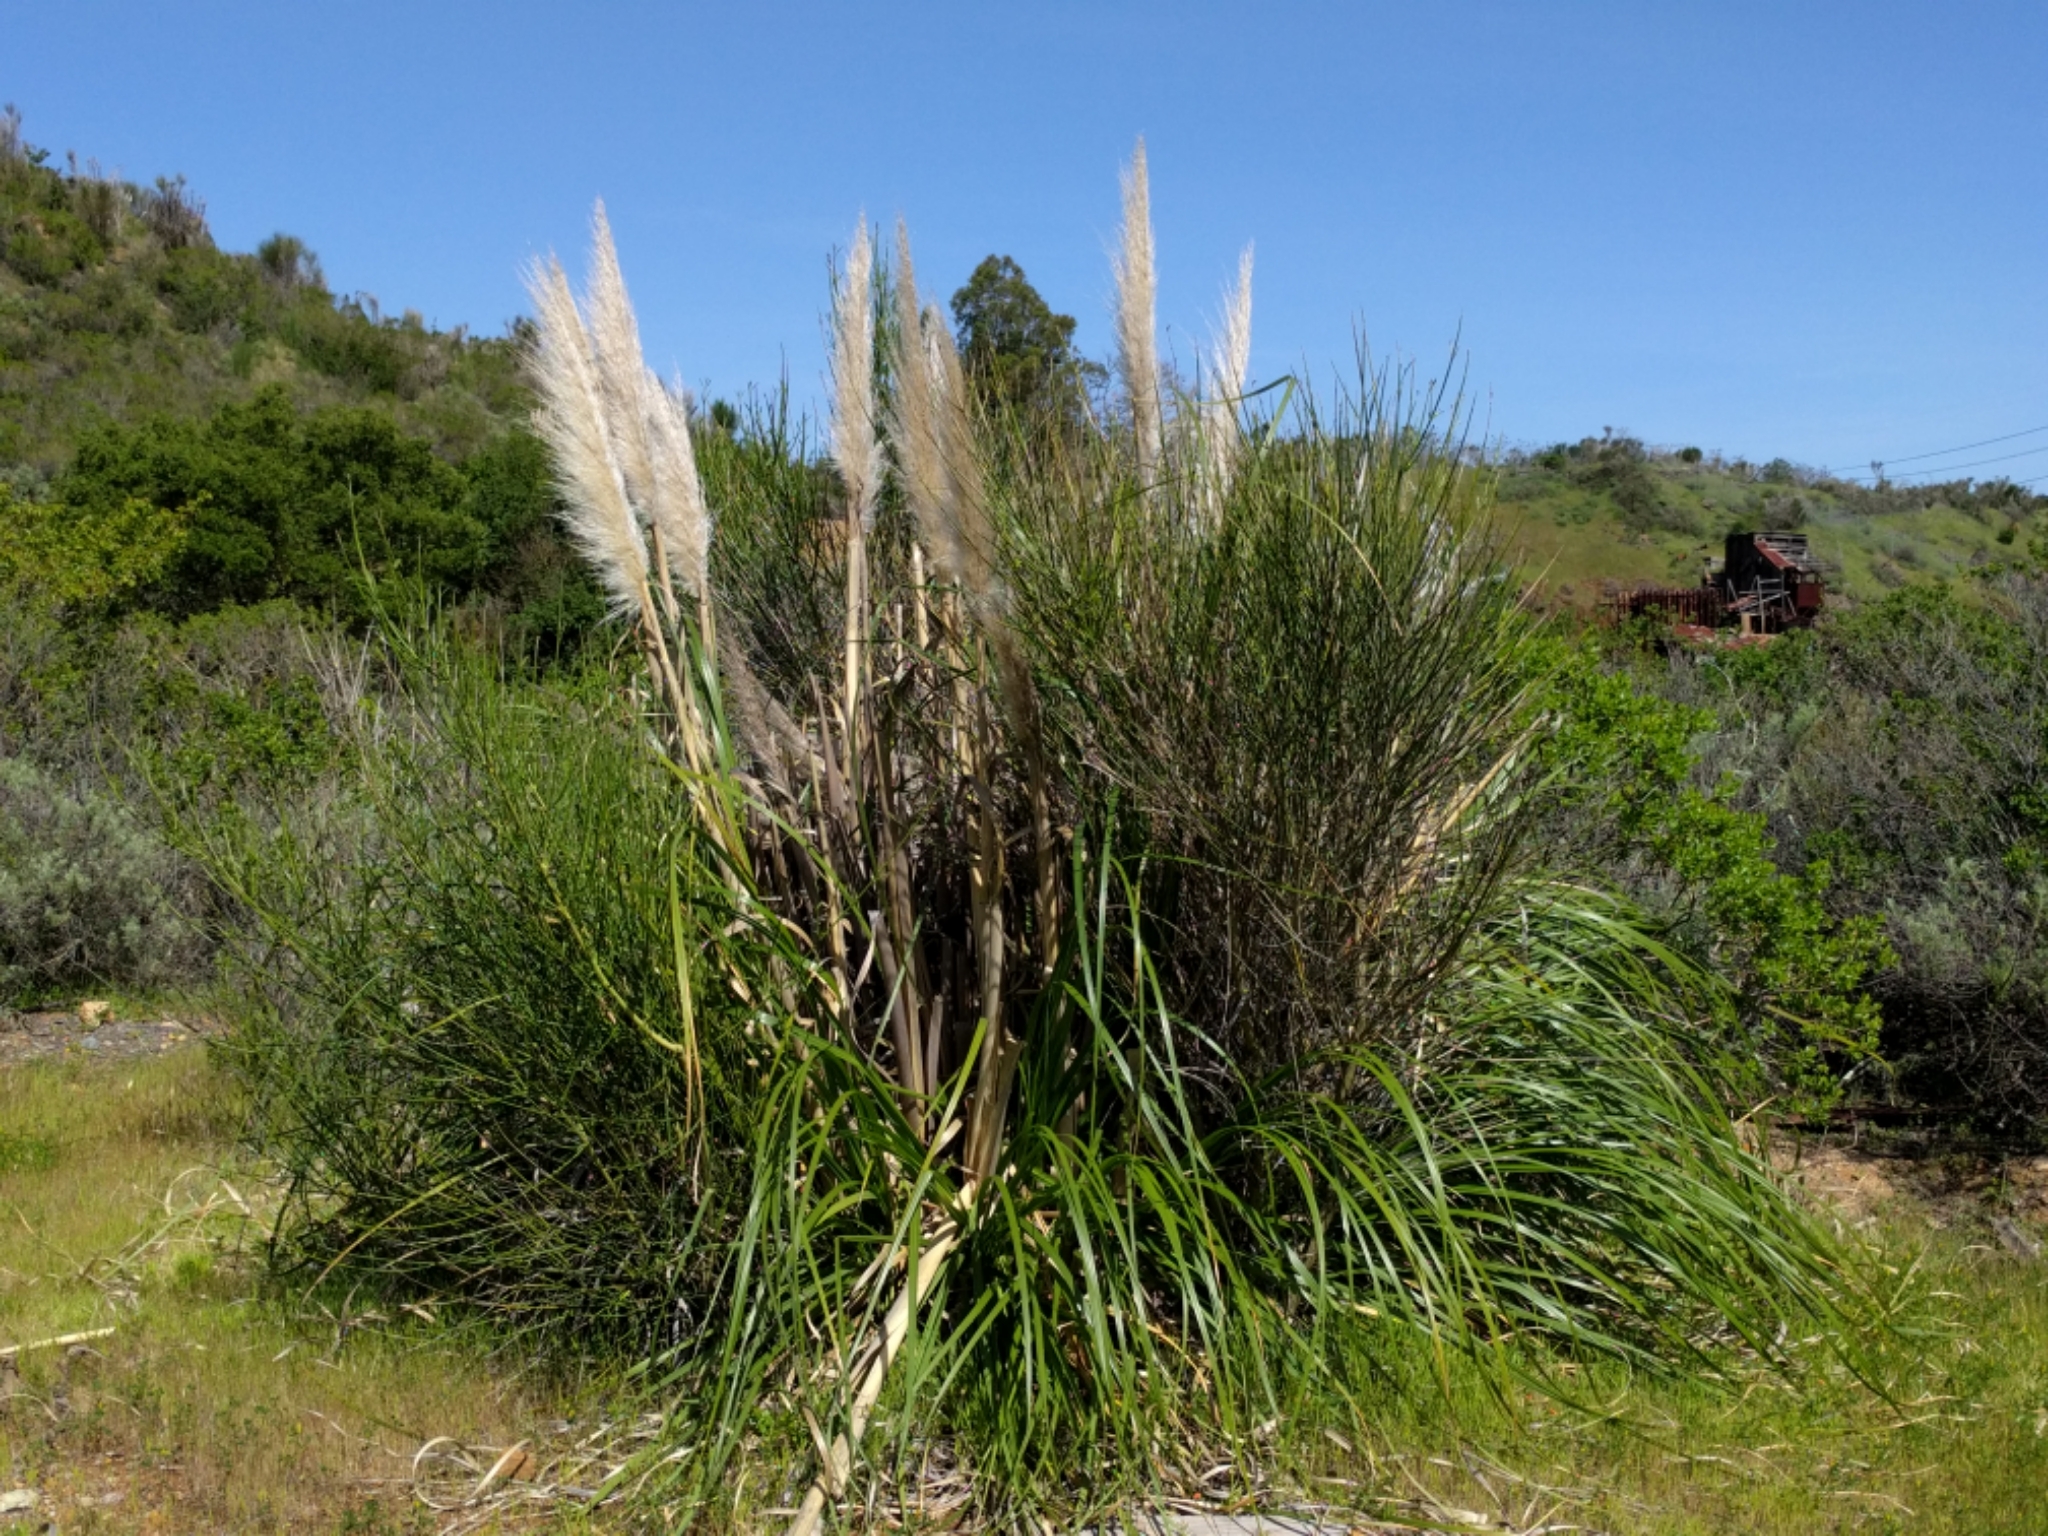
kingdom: Plantae
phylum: Tracheophyta
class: Liliopsida
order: Poales
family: Poaceae
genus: Cortaderia
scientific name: Cortaderia jubata
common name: Purple pampas grass
